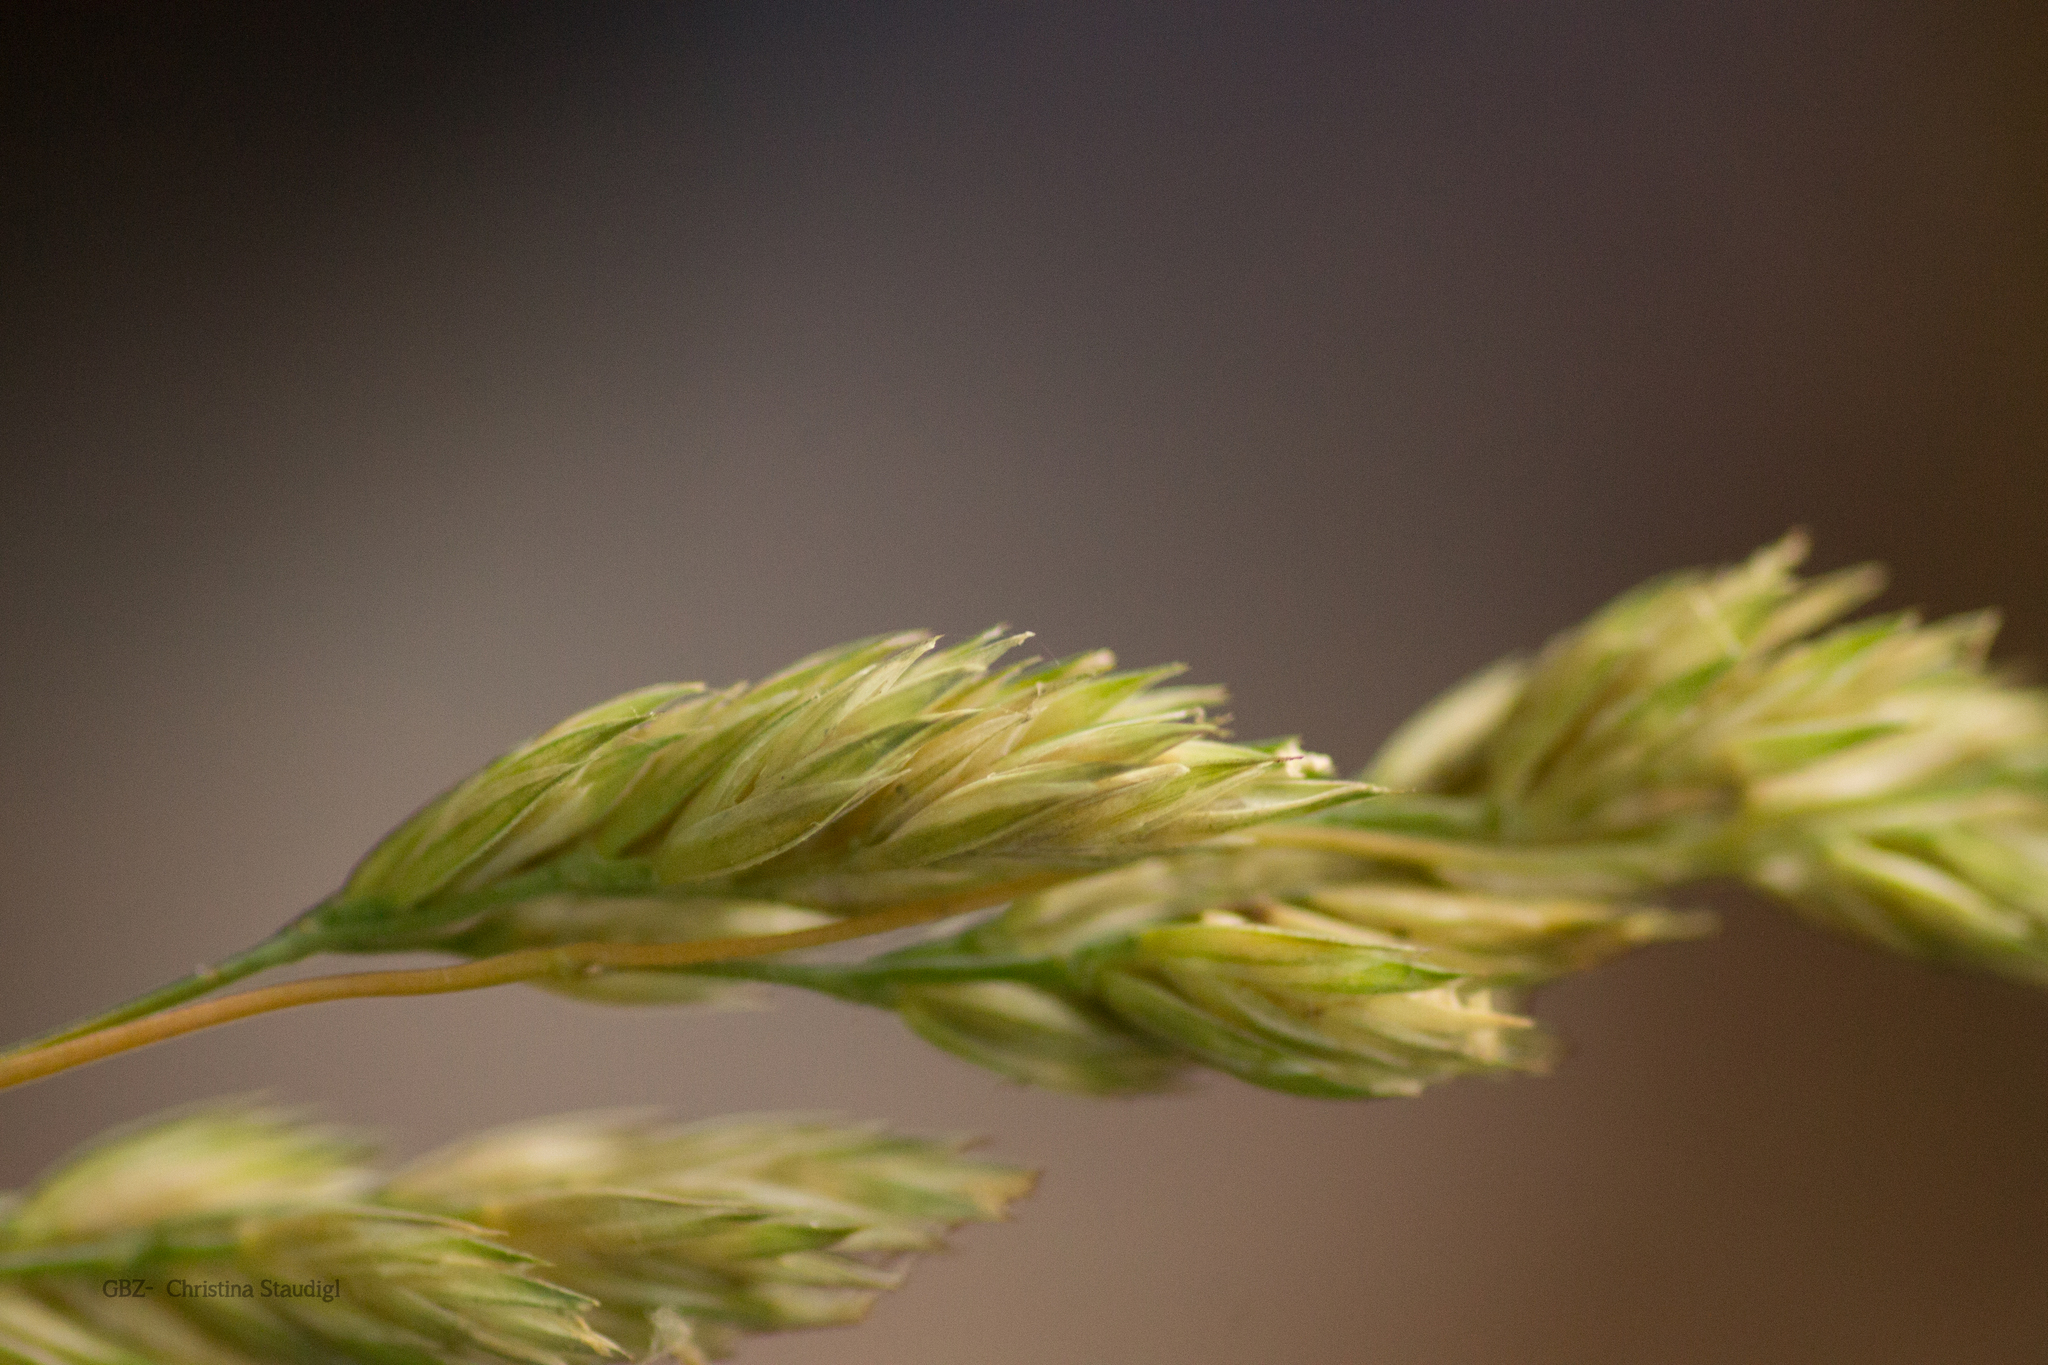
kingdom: Plantae
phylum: Tracheophyta
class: Liliopsida
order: Poales
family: Poaceae
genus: Dactylis
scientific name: Dactylis glomerata
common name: Orchardgrass
